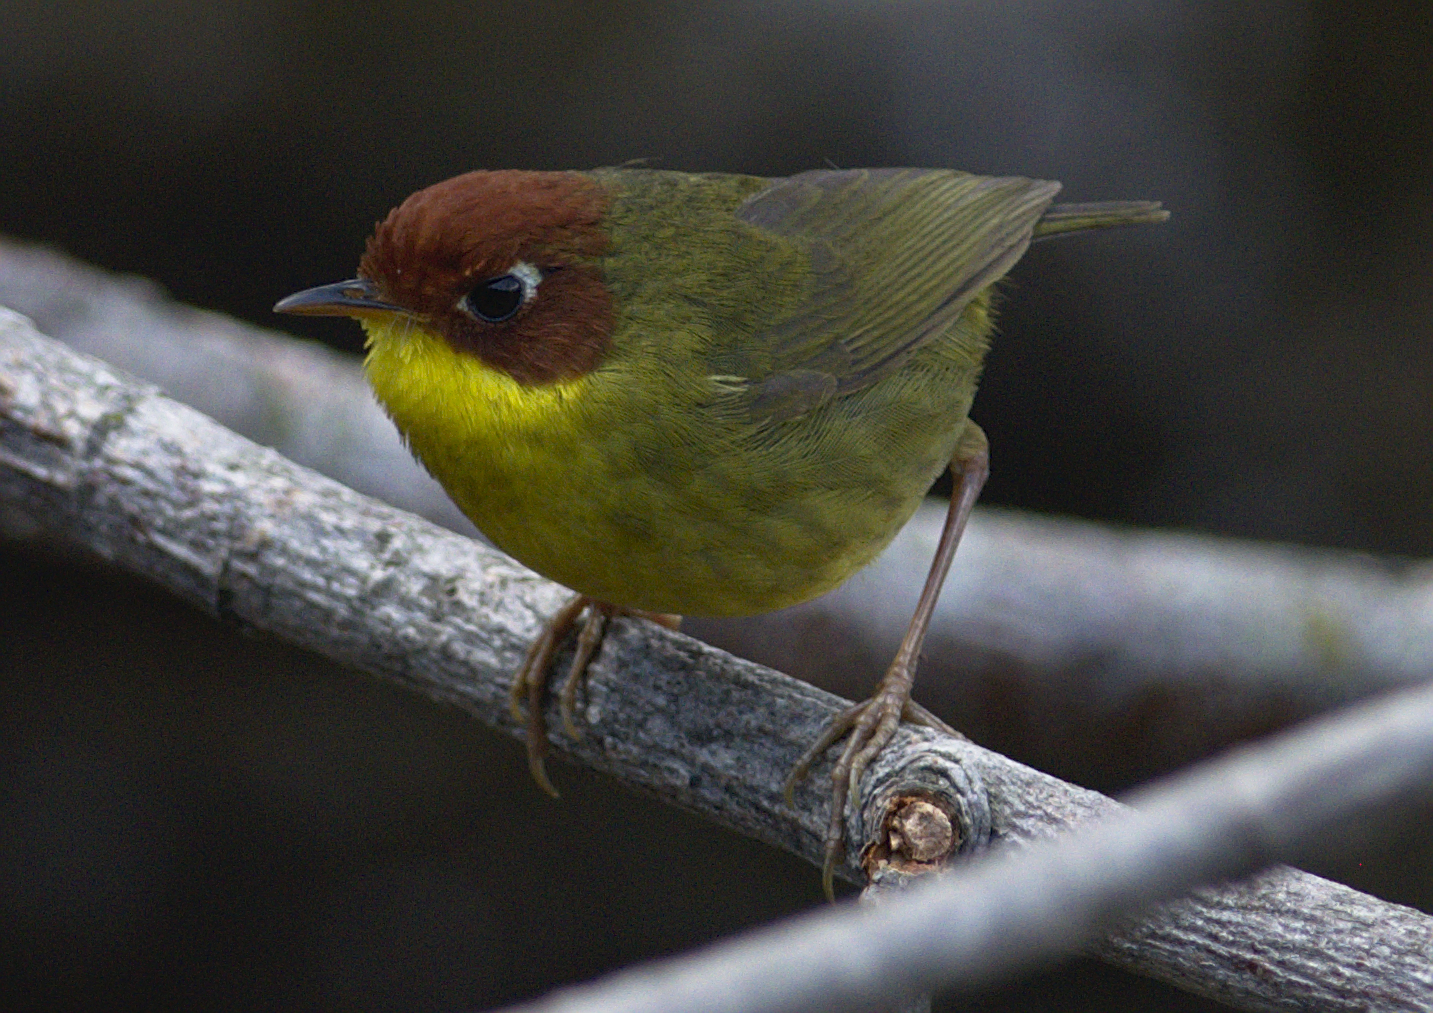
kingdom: Animalia
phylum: Chordata
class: Aves
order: Passeriformes
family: Cettiidae
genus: Cettia
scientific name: Cettia castaneocoronata
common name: Chestnut-headed tesia
